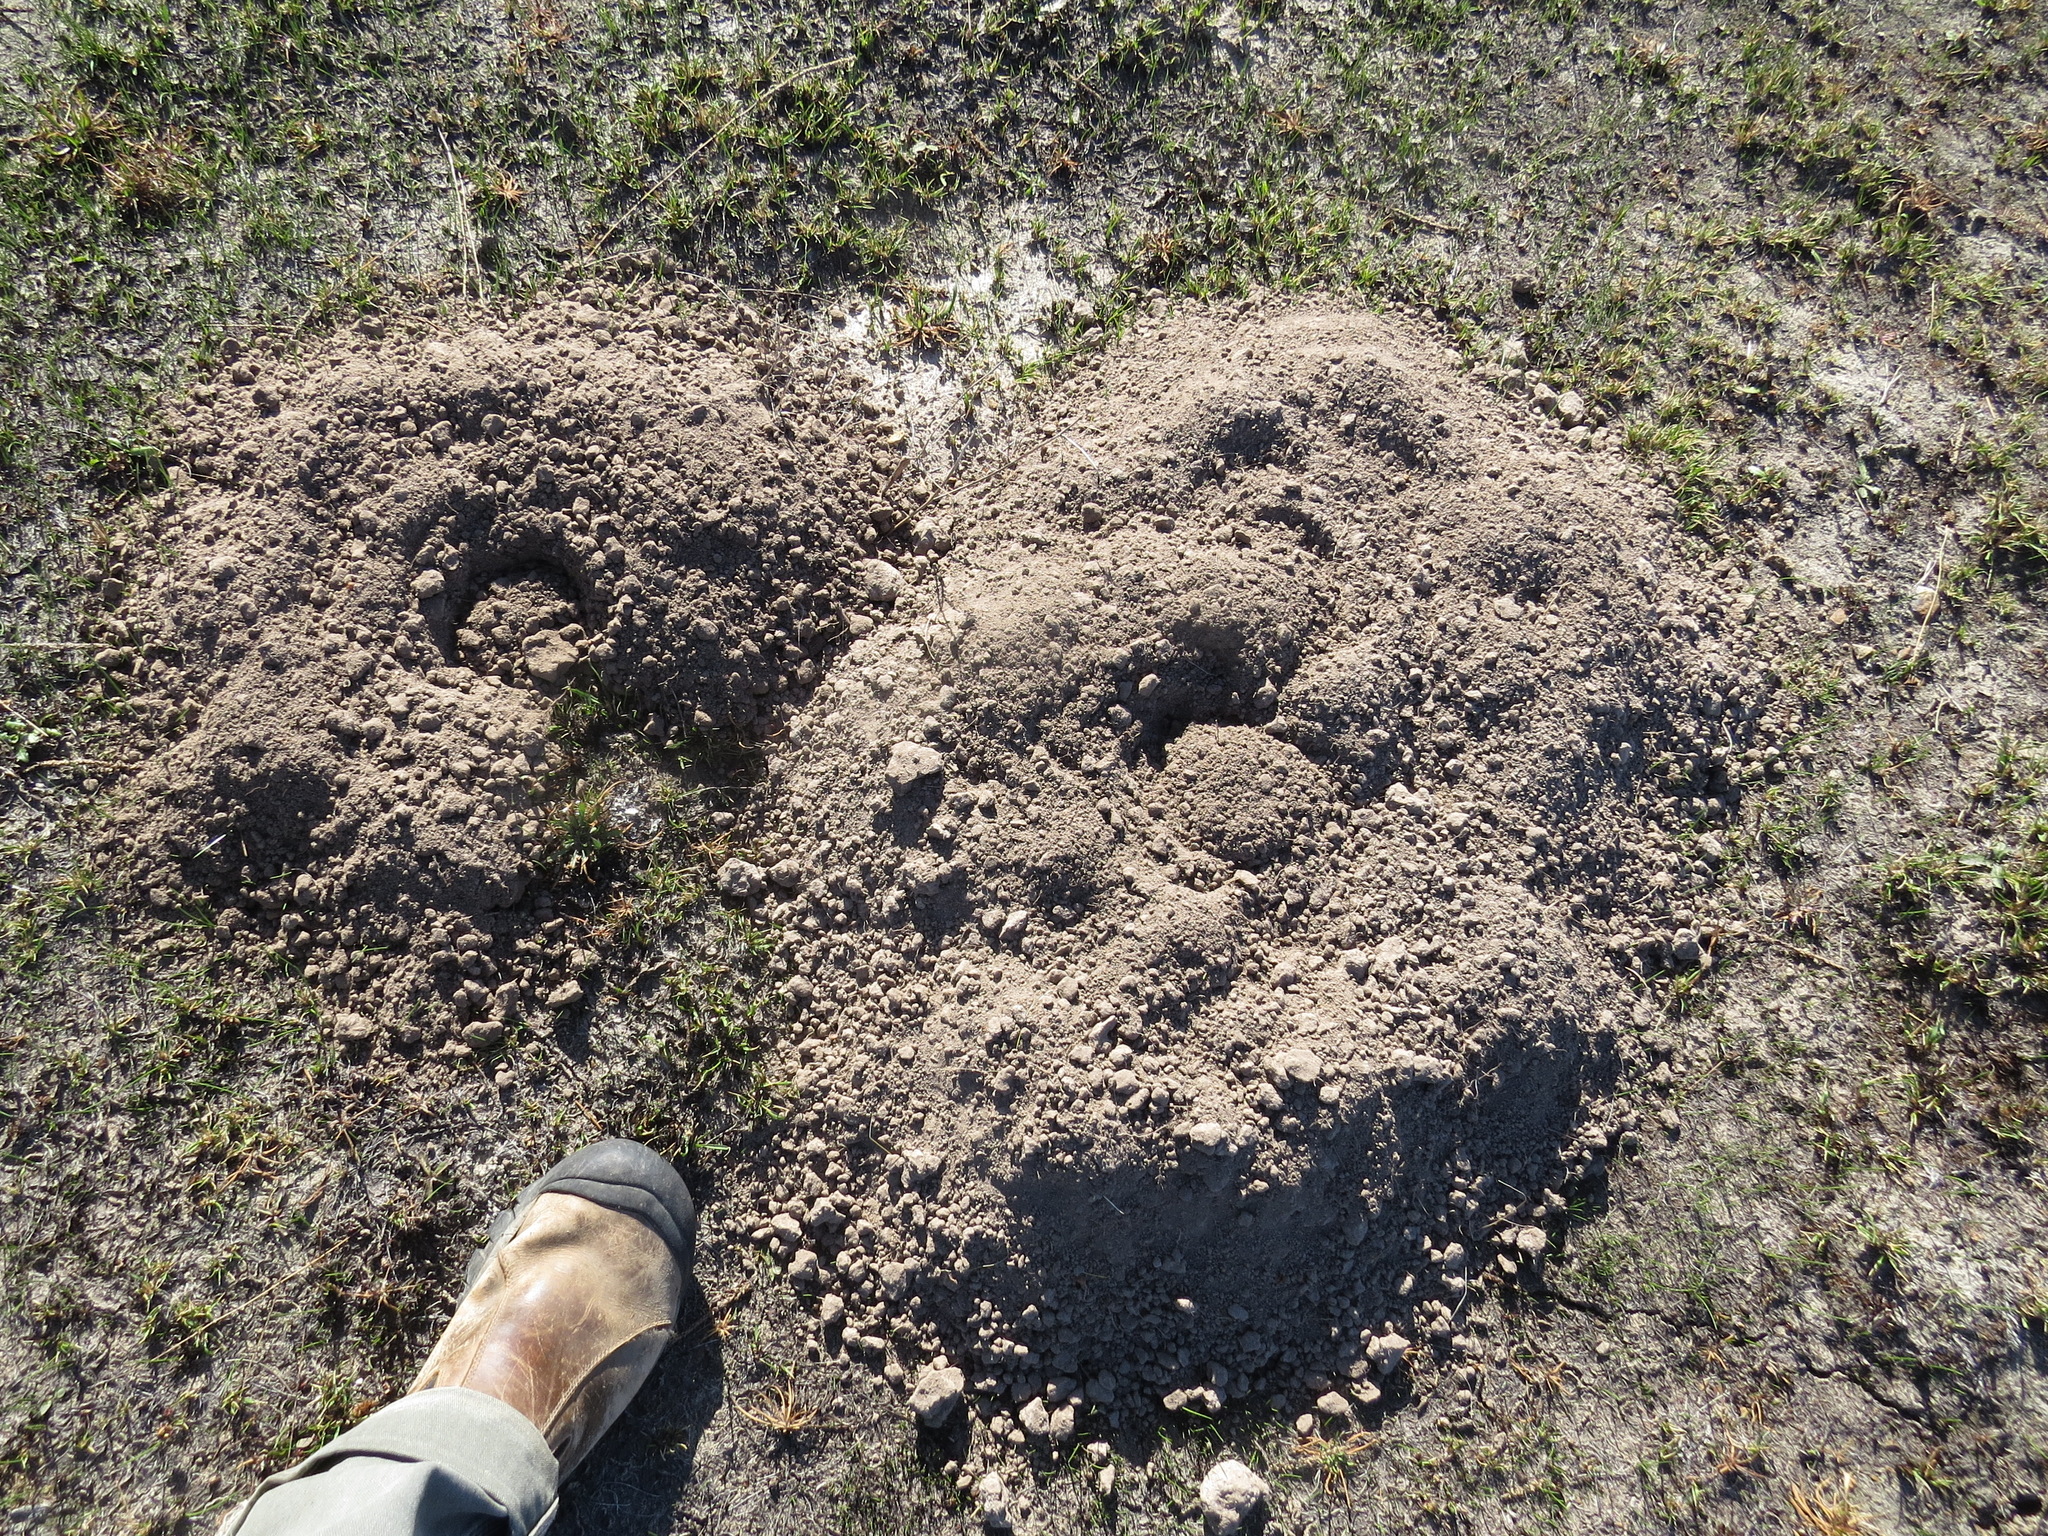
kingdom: Animalia
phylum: Chordata
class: Mammalia
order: Rodentia
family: Geomyidae
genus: Thomomys
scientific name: Thomomys bottae
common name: Botta's pocket gopher
